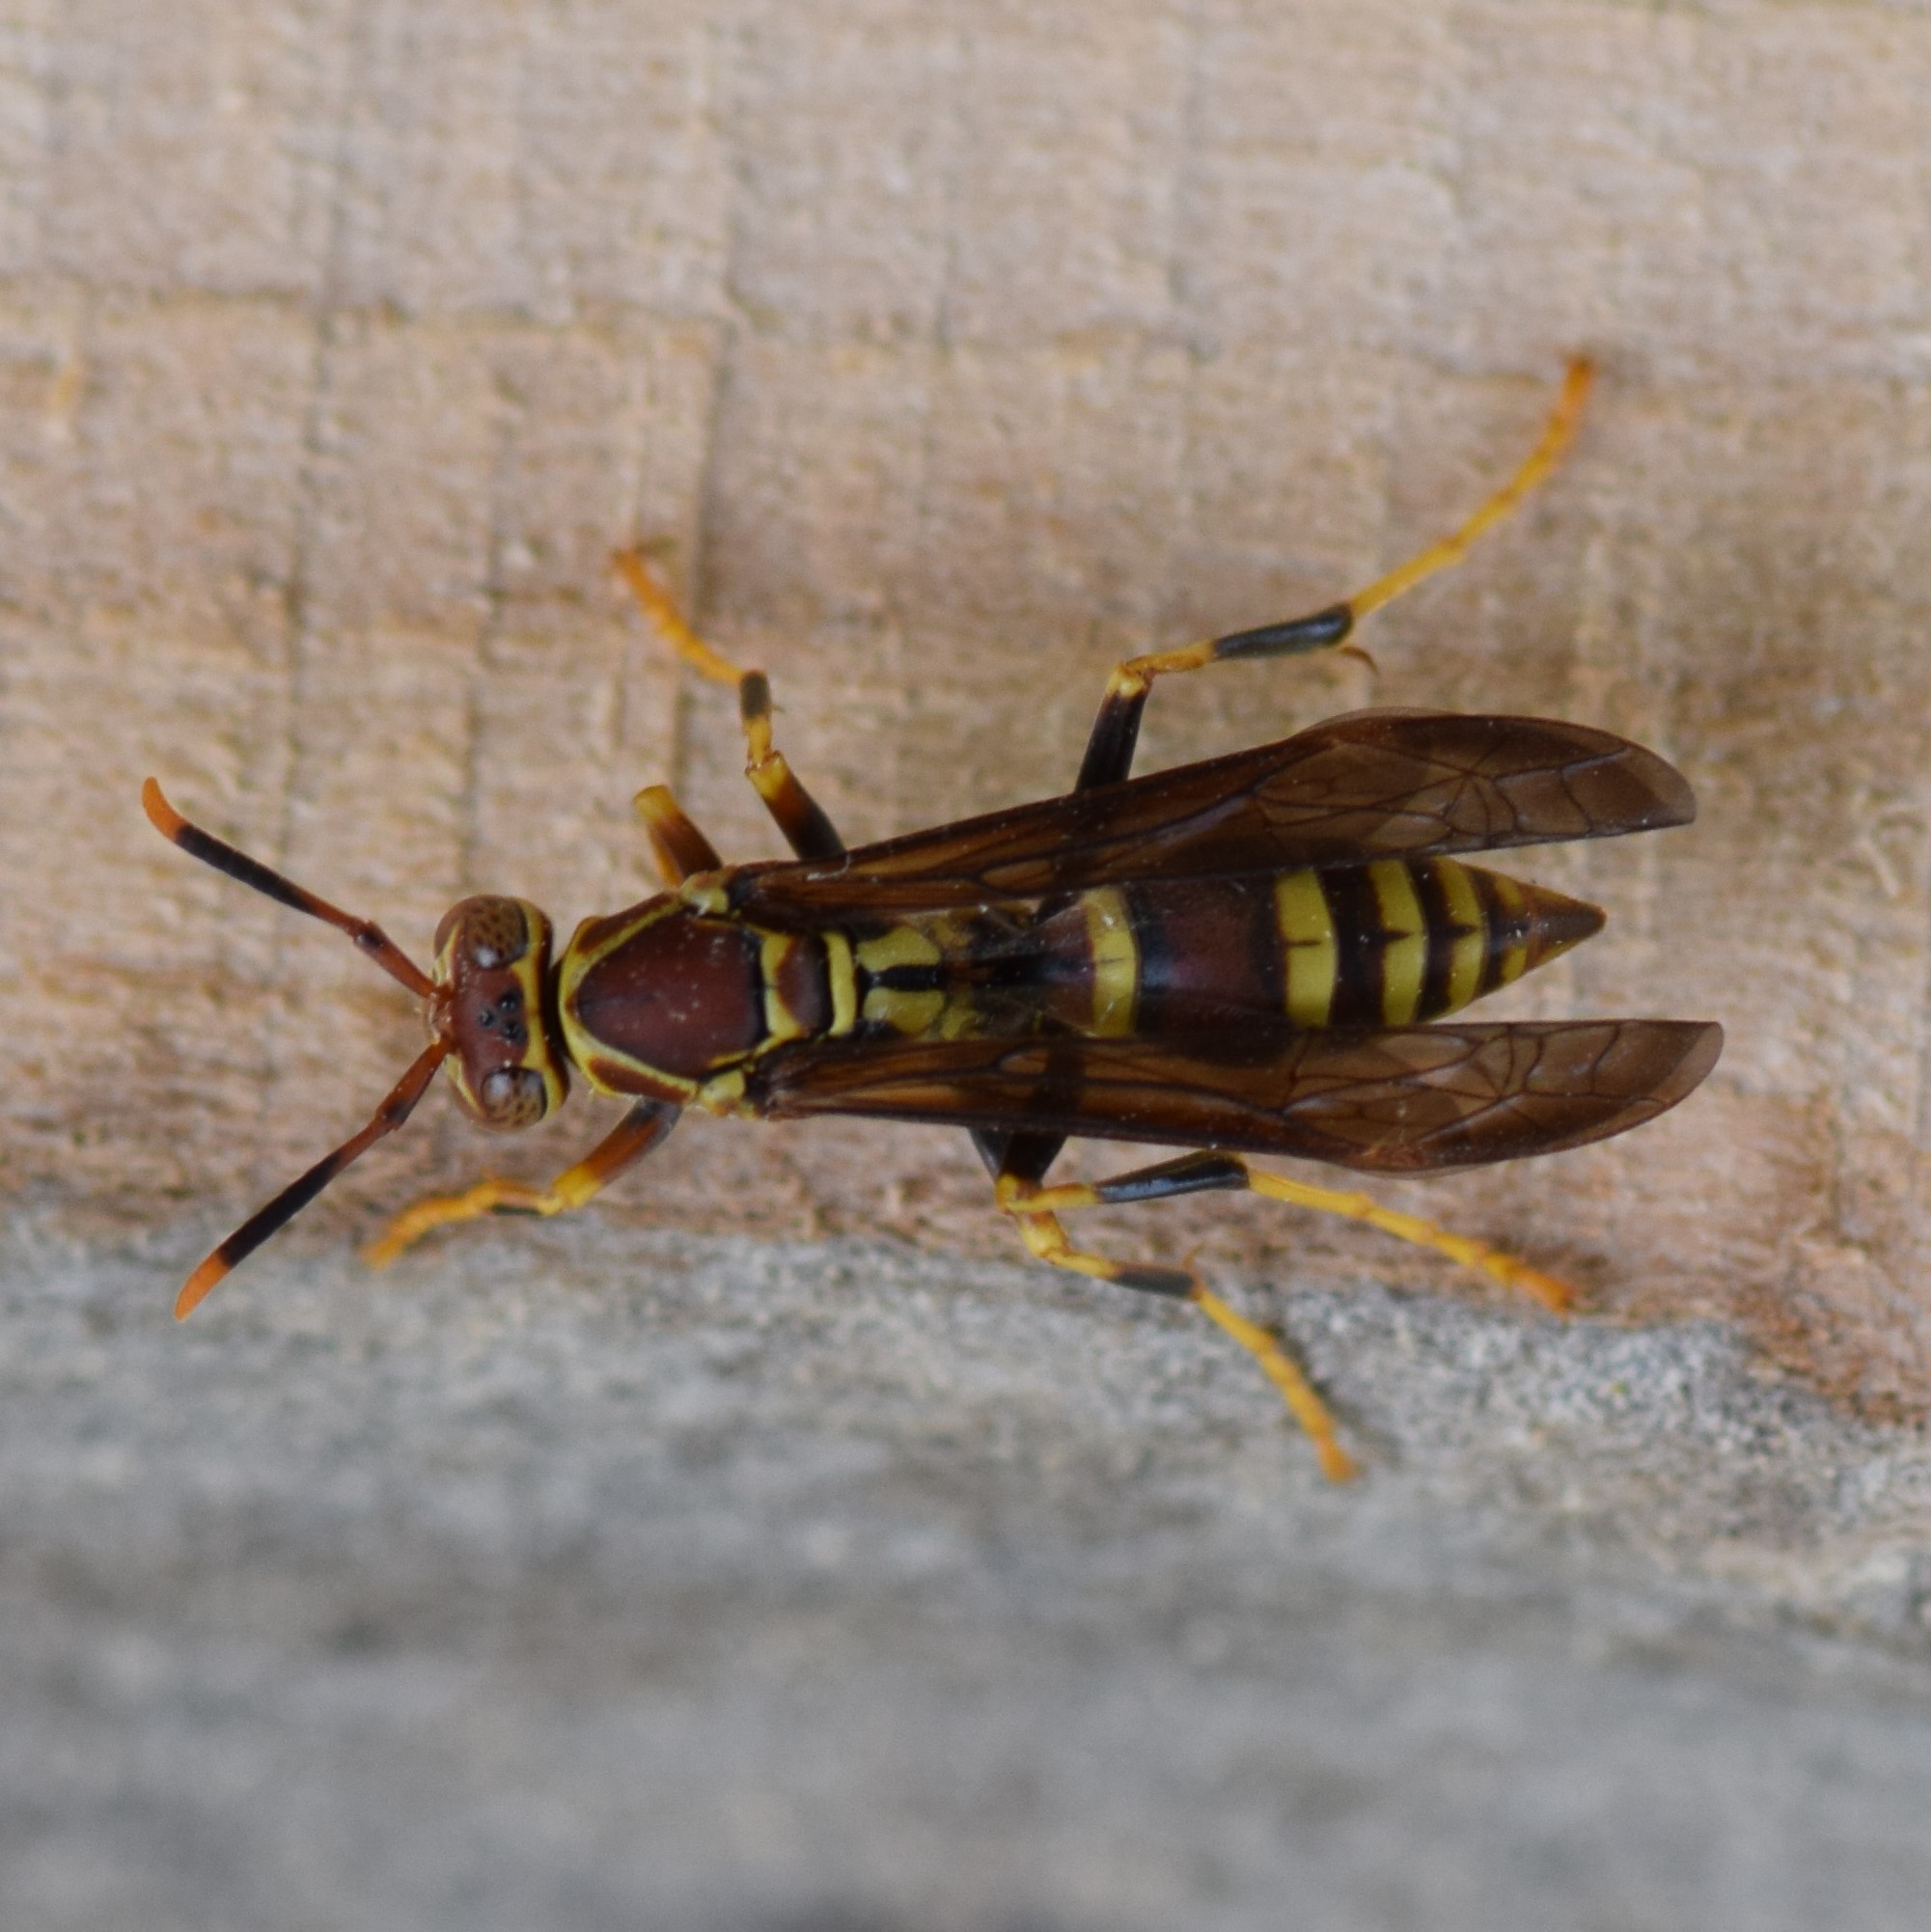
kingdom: Animalia
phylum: Arthropoda
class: Insecta
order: Hymenoptera
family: Eumenidae
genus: Polistes
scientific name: Polistes exclamans
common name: Paper wasp
